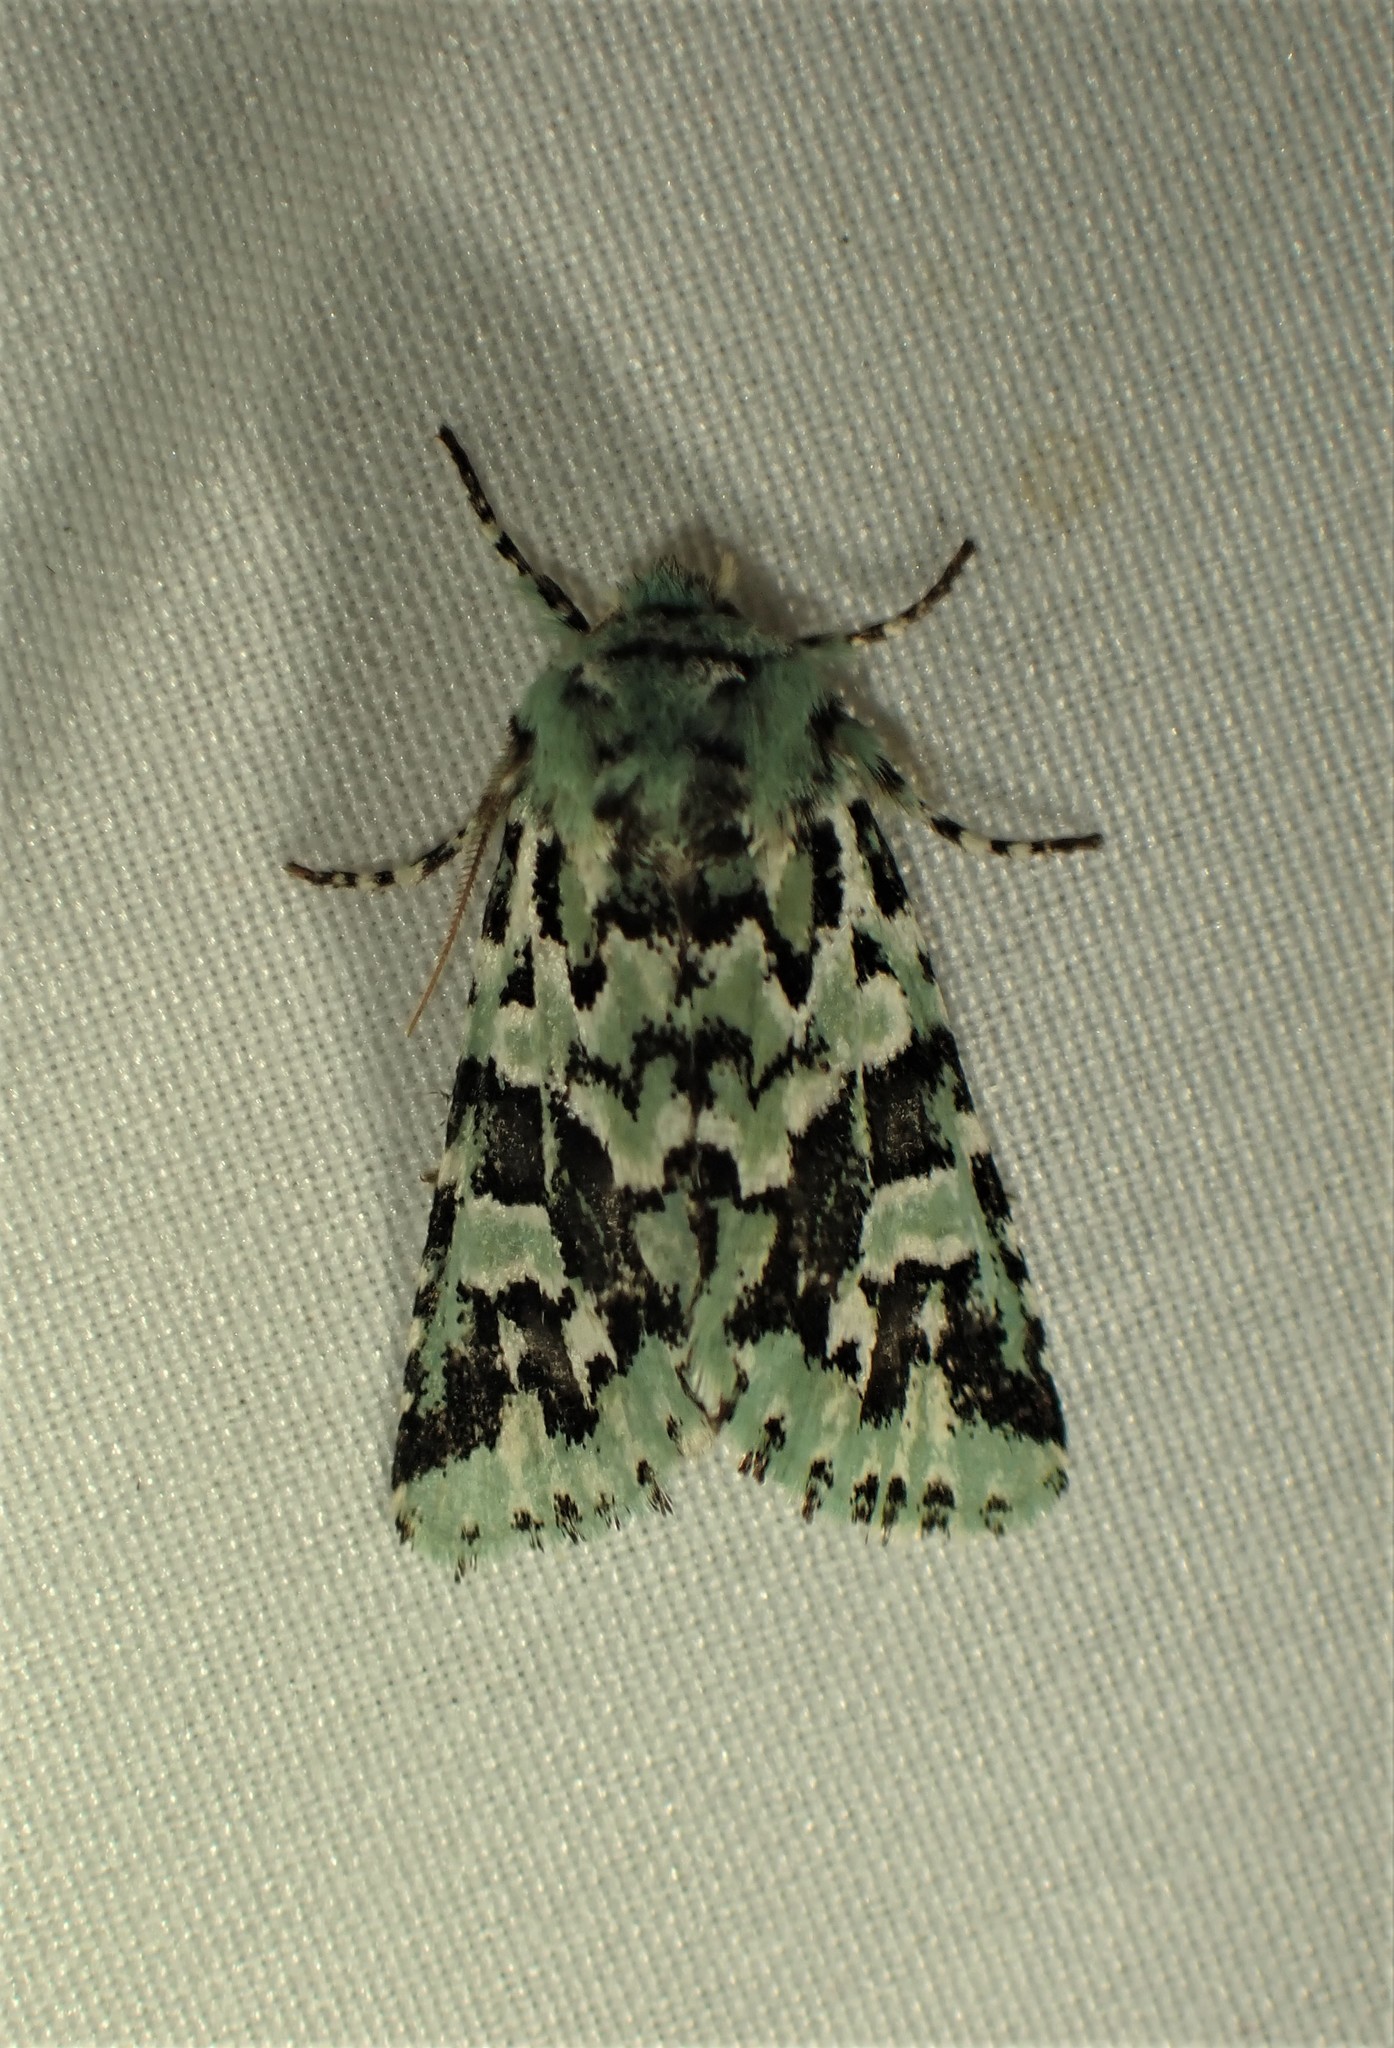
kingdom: Animalia
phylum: Arthropoda
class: Insecta
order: Lepidoptera
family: Noctuidae
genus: Feralia
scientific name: Feralia comstocki
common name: Comstock's sallow
